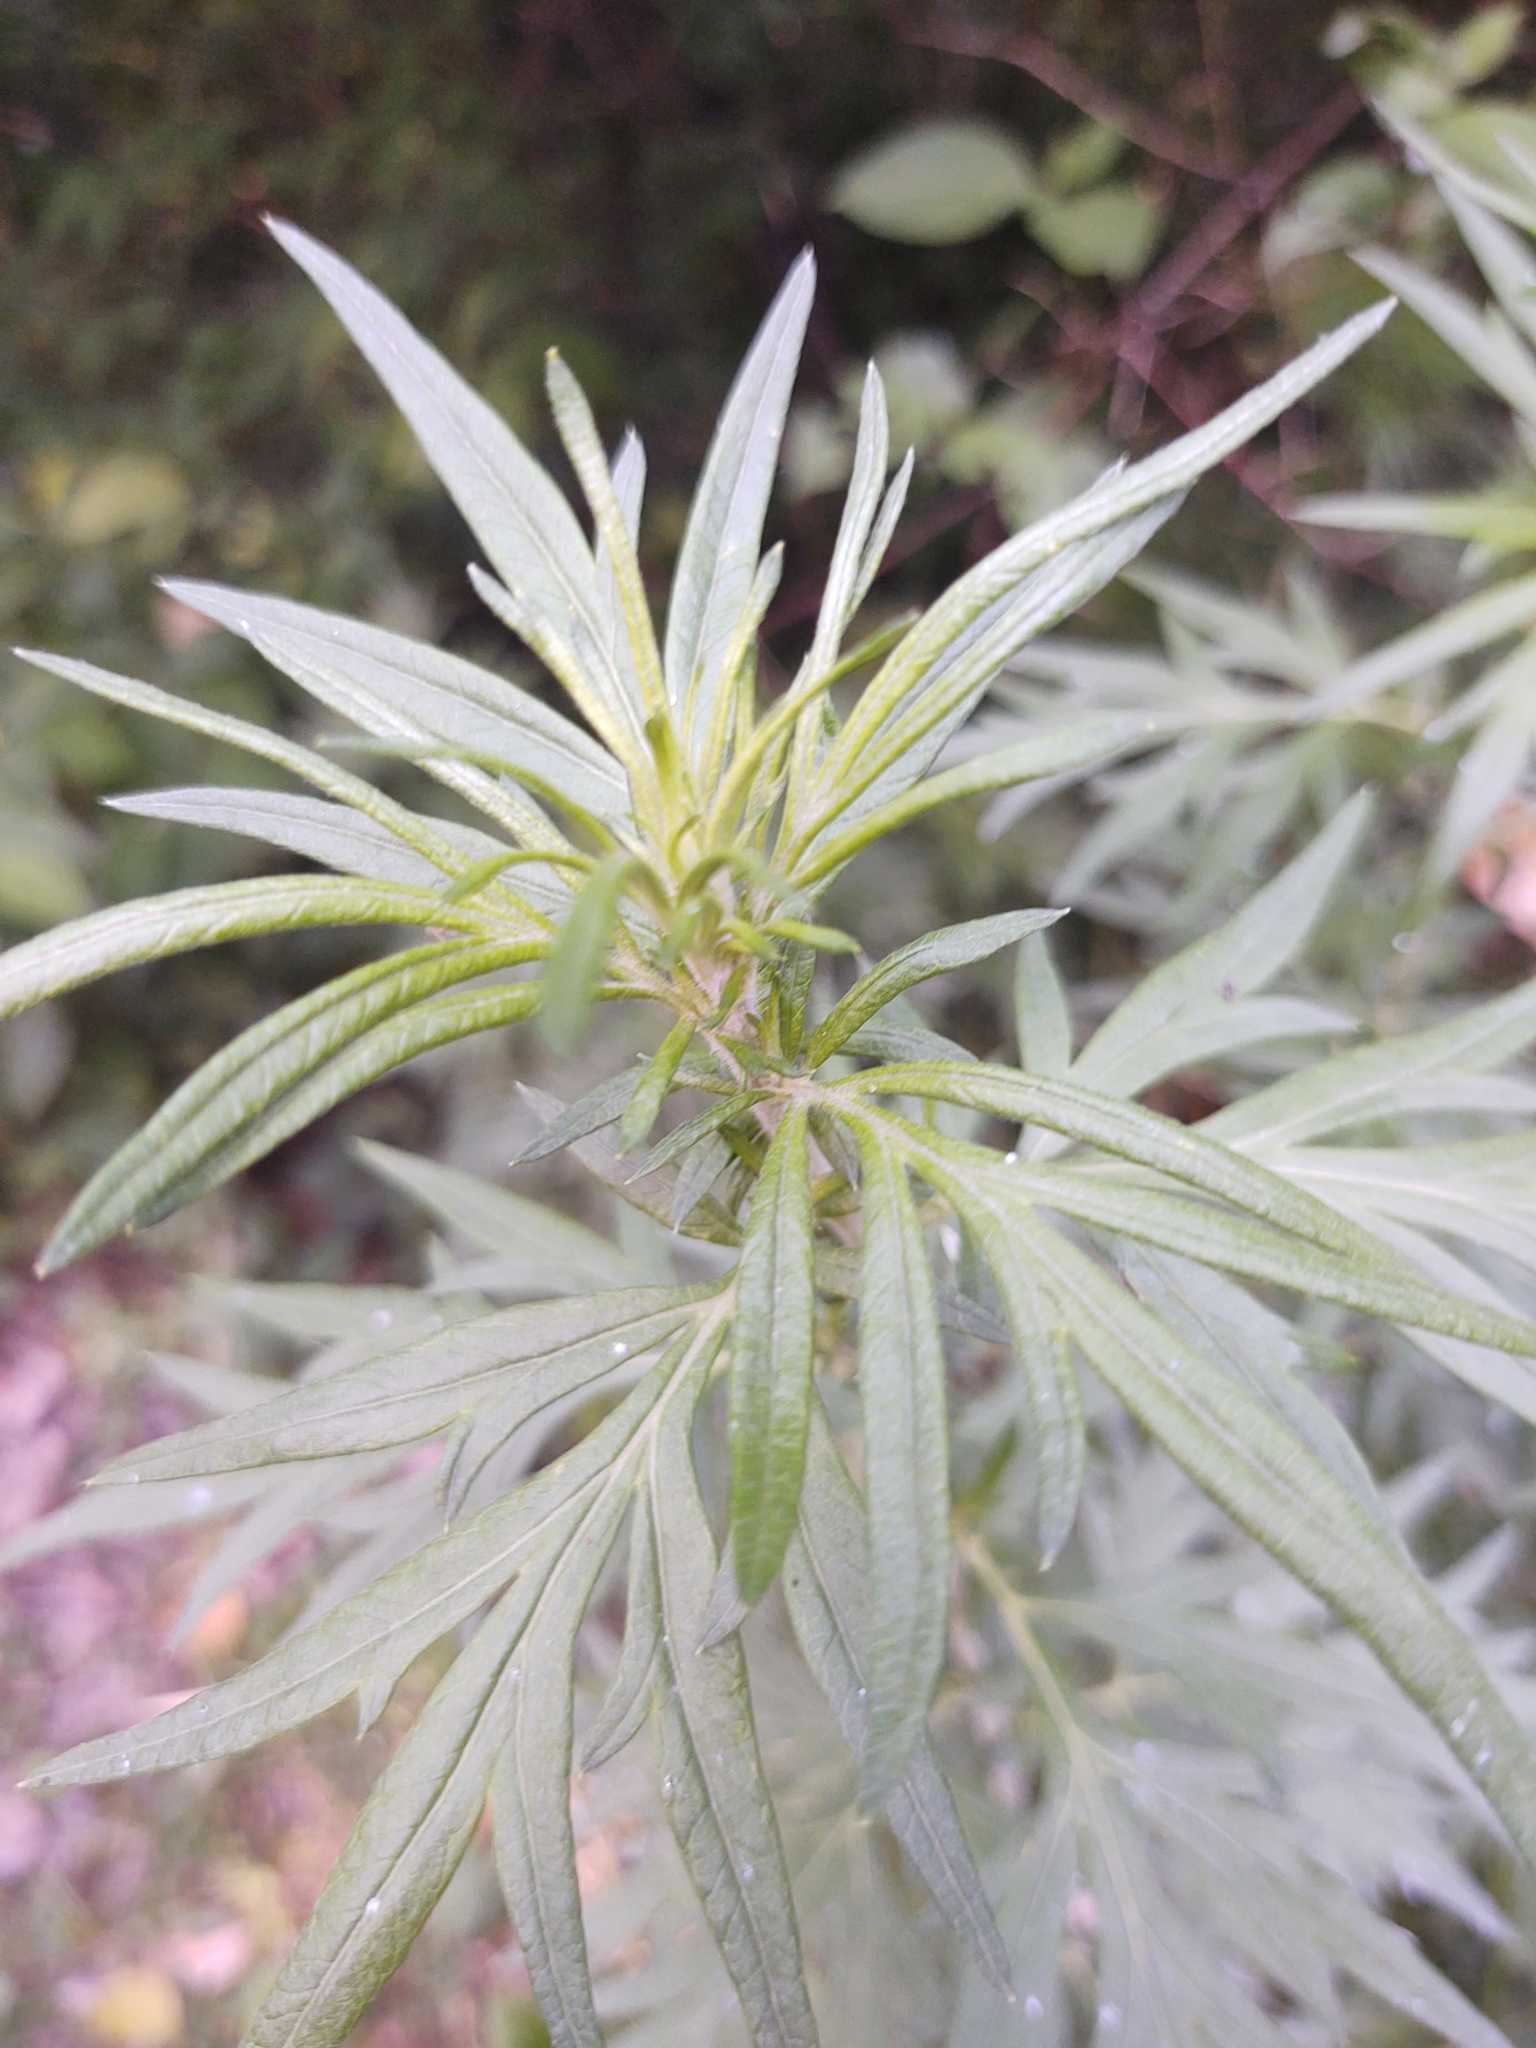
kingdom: Plantae
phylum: Tracheophyta
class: Magnoliopsida
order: Asterales
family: Asteraceae
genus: Artemisia
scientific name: Artemisia vulgaris
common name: Mugwort
